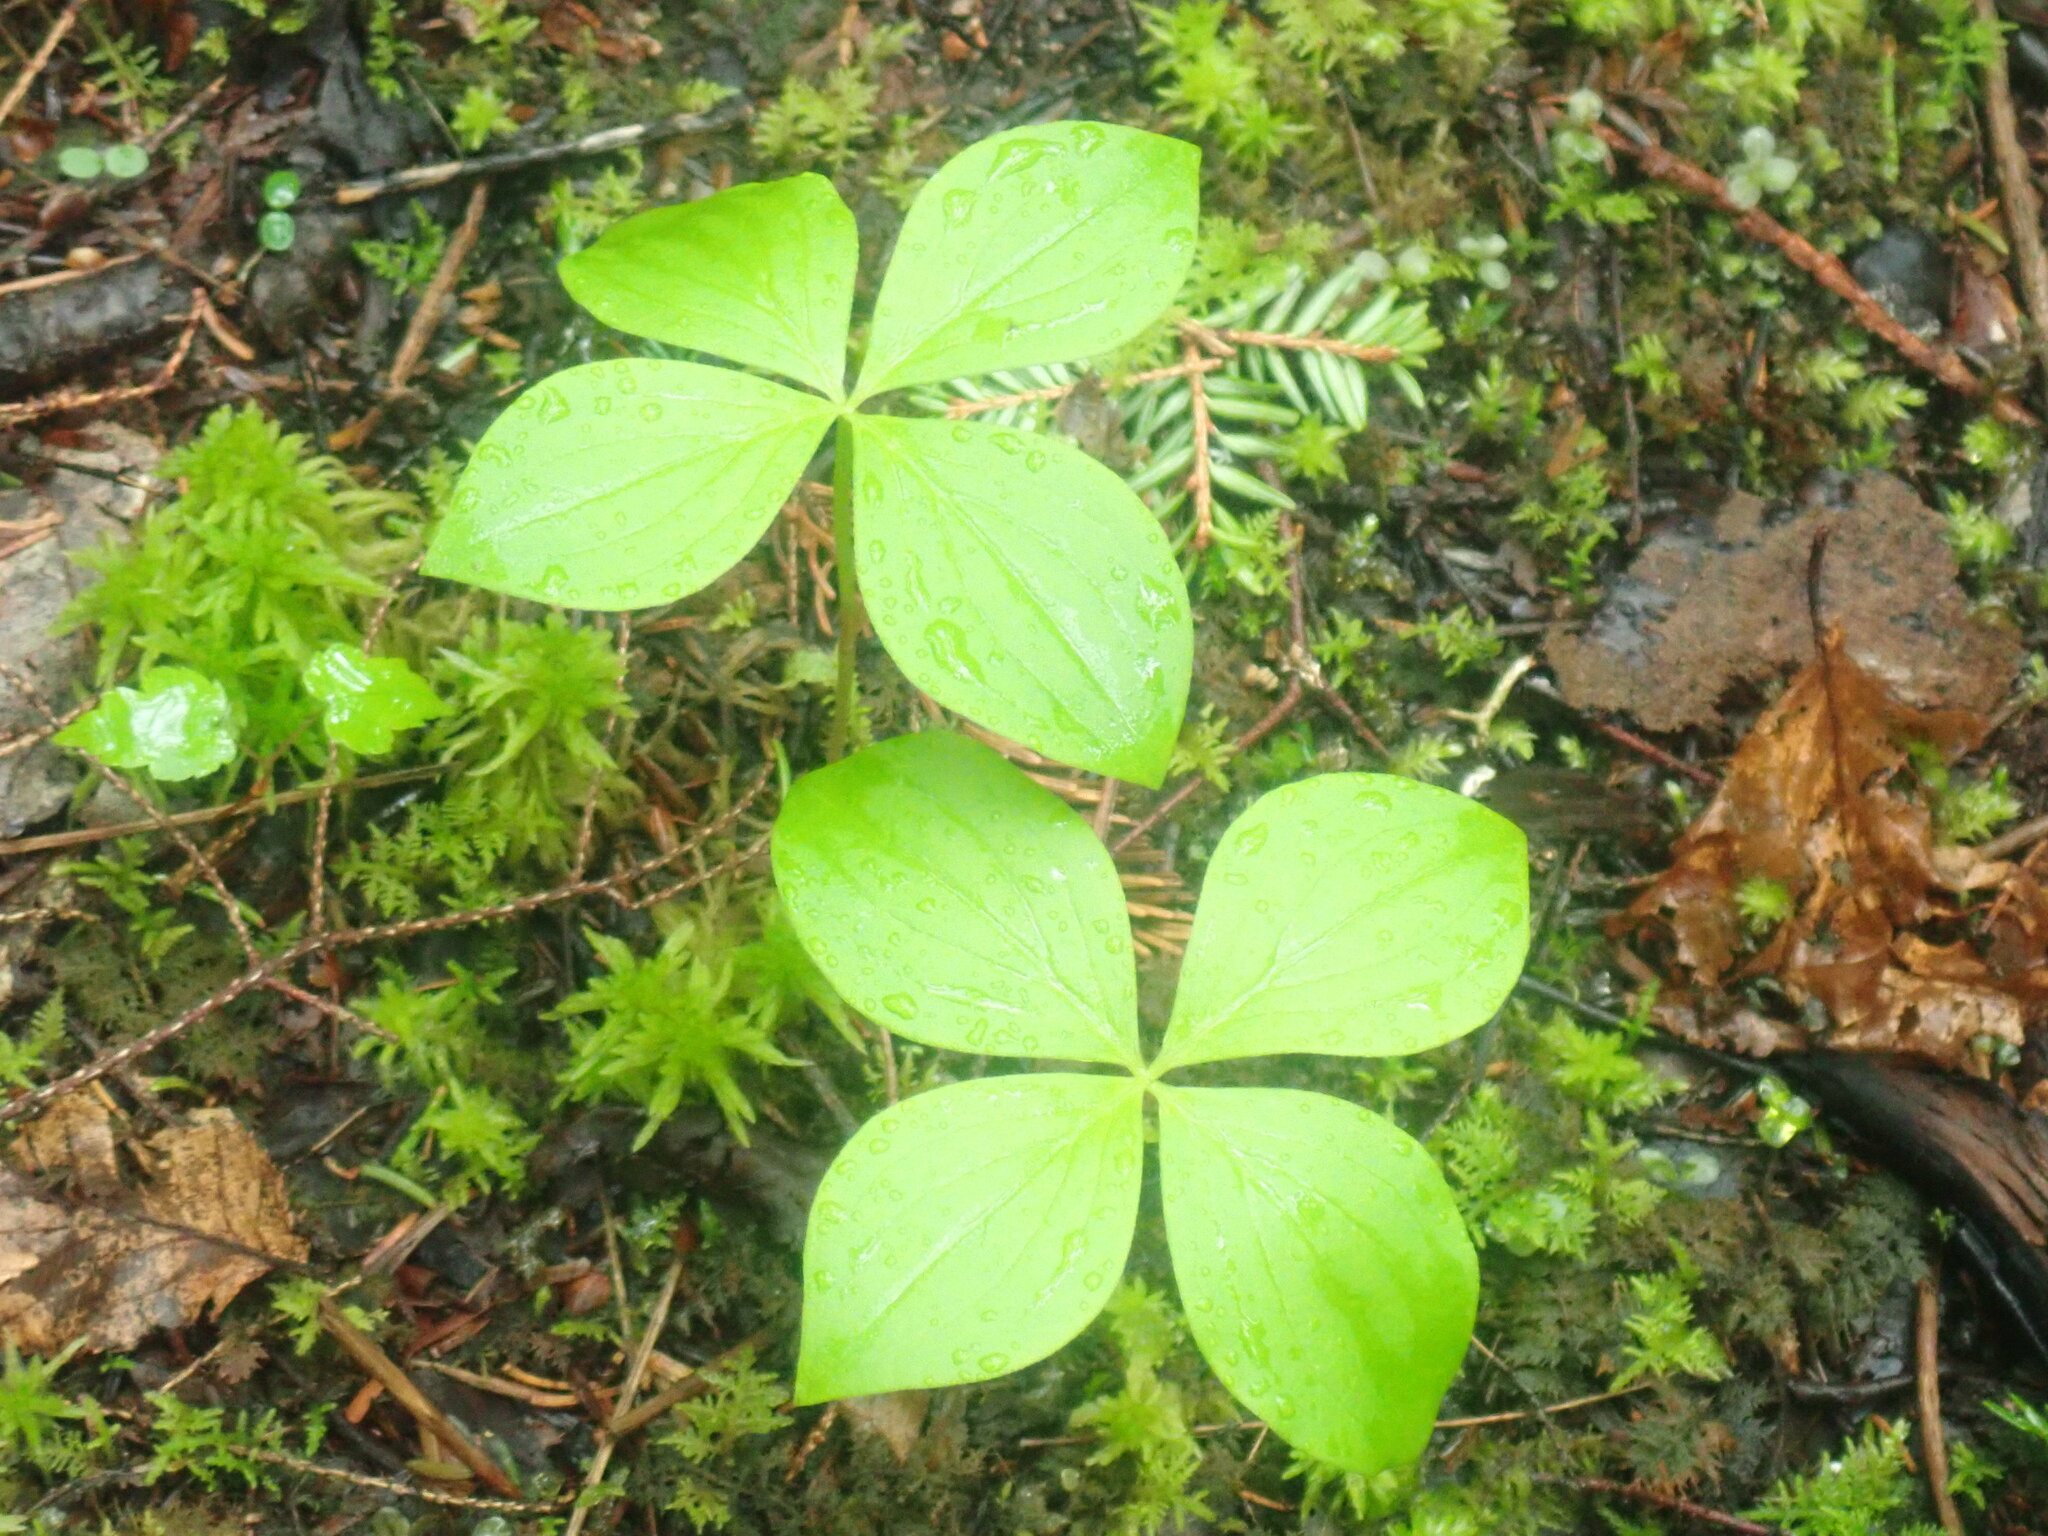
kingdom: Plantae
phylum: Tracheophyta
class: Magnoliopsida
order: Cornales
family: Cornaceae
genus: Cornus
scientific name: Cornus canadensis
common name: Creeping dogwood
